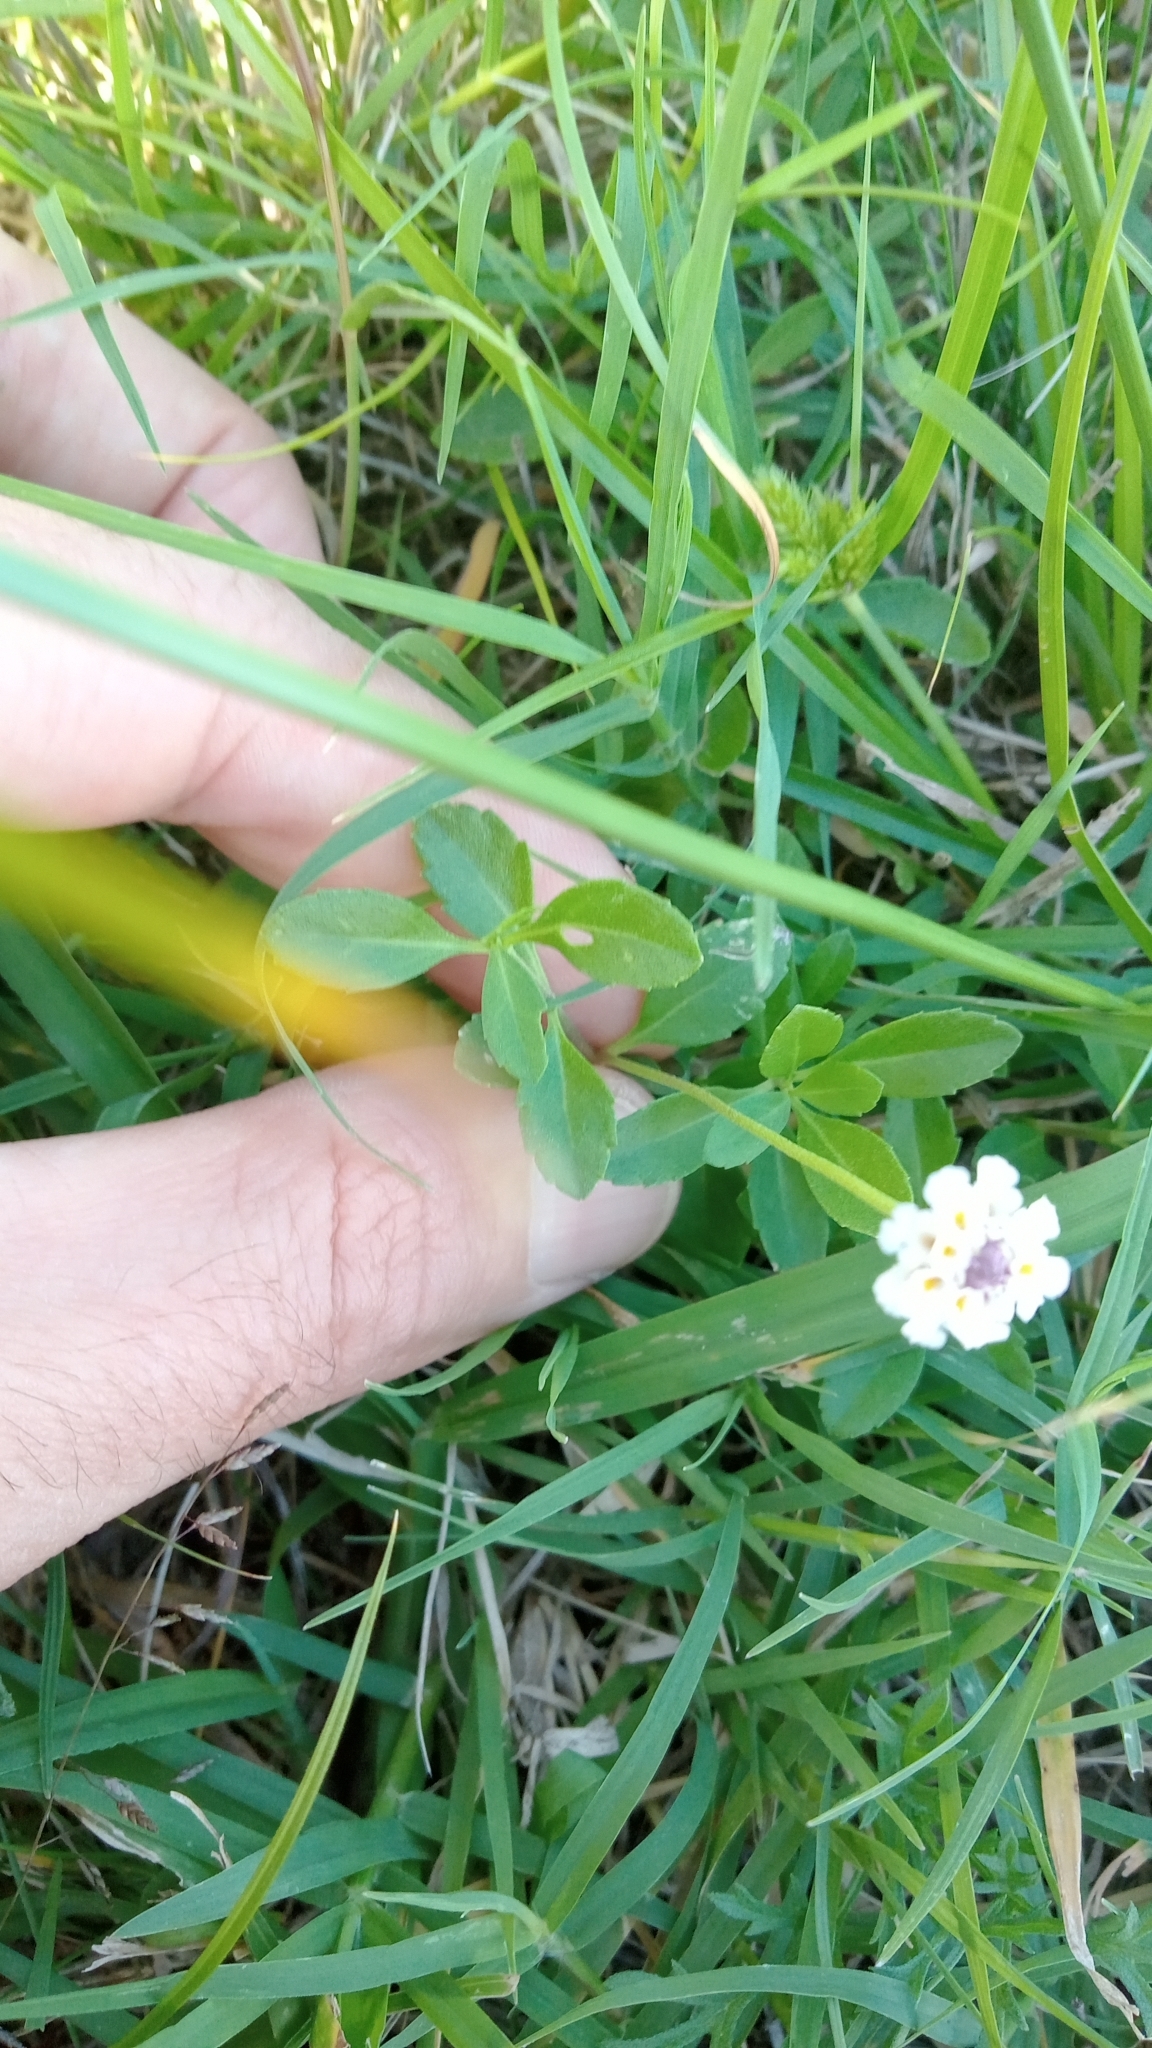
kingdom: Plantae
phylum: Tracheophyta
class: Magnoliopsida
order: Lamiales
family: Verbenaceae
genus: Phyla
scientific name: Phyla nodiflora
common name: Frogfruit
